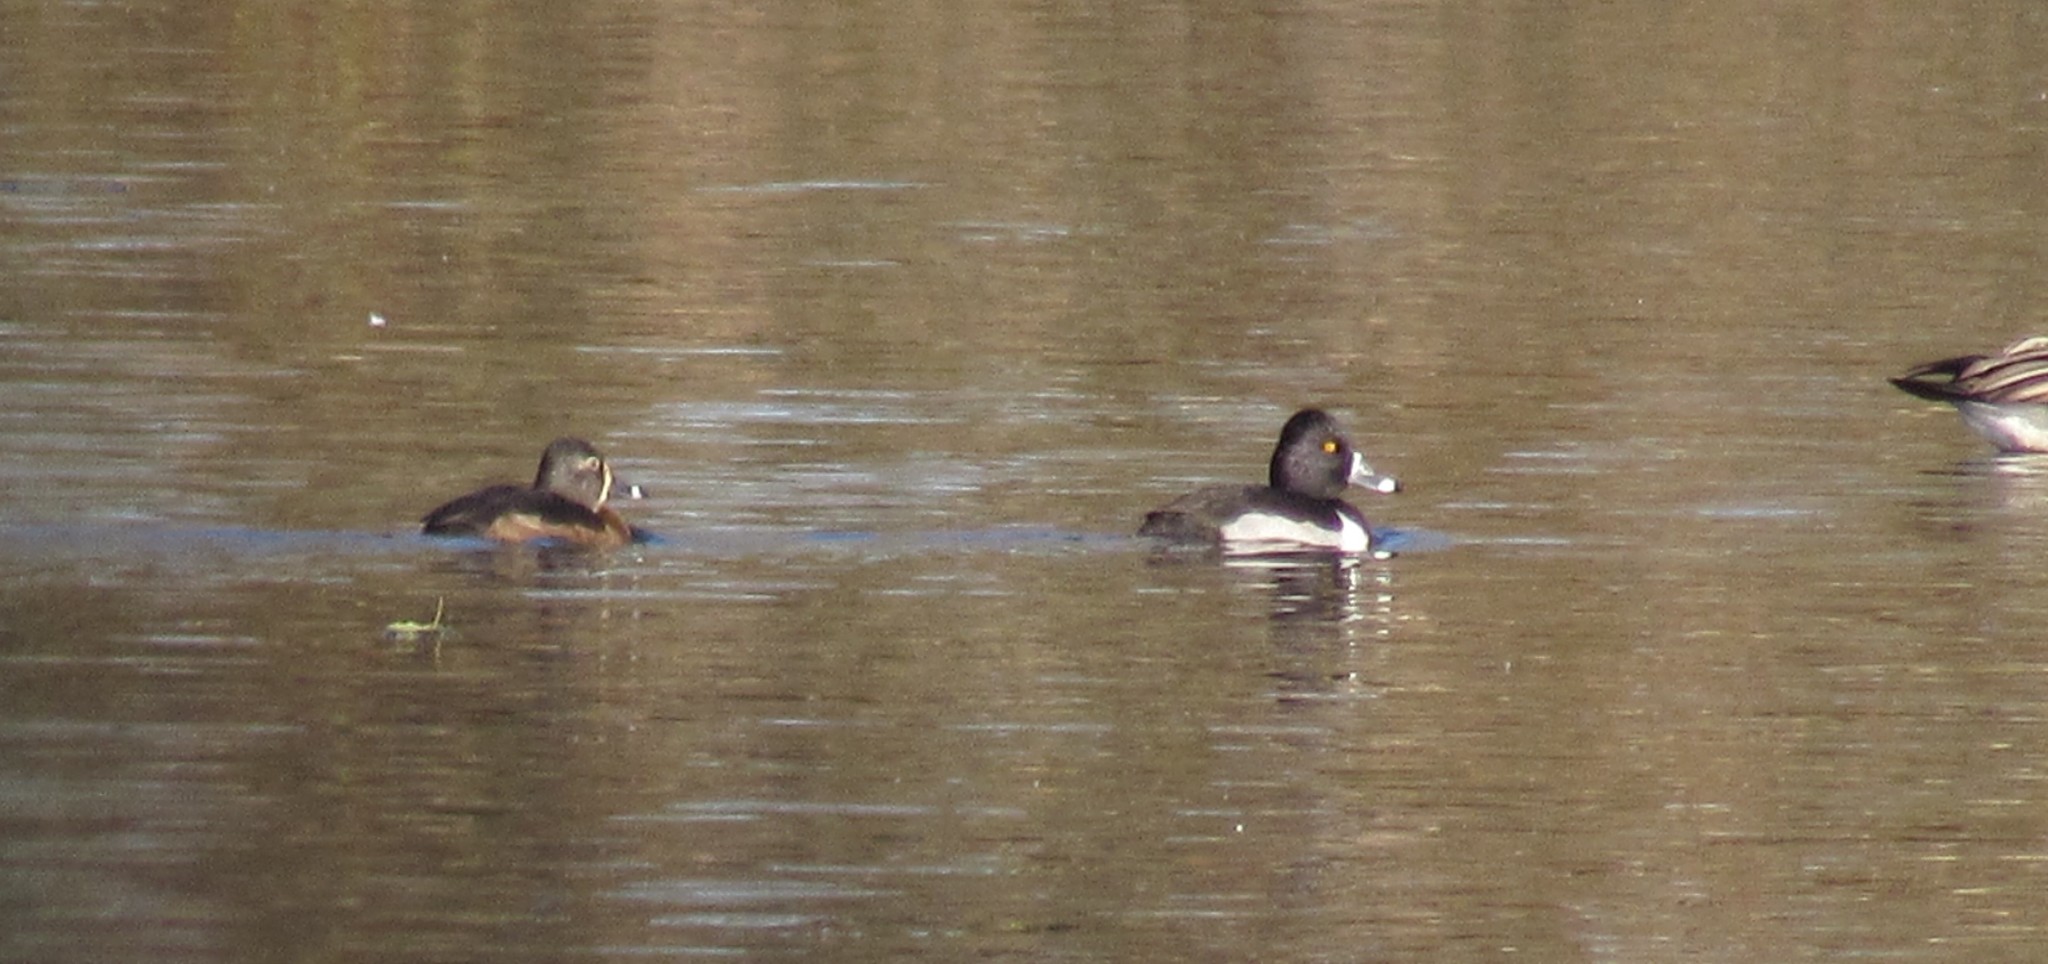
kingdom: Animalia
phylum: Chordata
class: Aves
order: Anseriformes
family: Anatidae
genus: Aythya
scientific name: Aythya collaris
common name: Ring-necked duck
